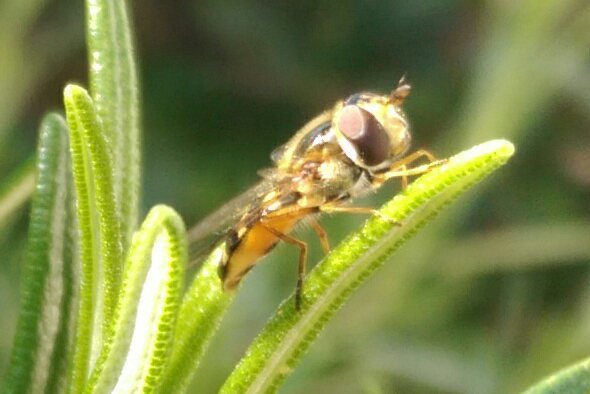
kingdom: Animalia
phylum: Arthropoda
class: Insecta
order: Diptera
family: Syrphidae
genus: Eupeodes
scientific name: Eupeodes luniger
